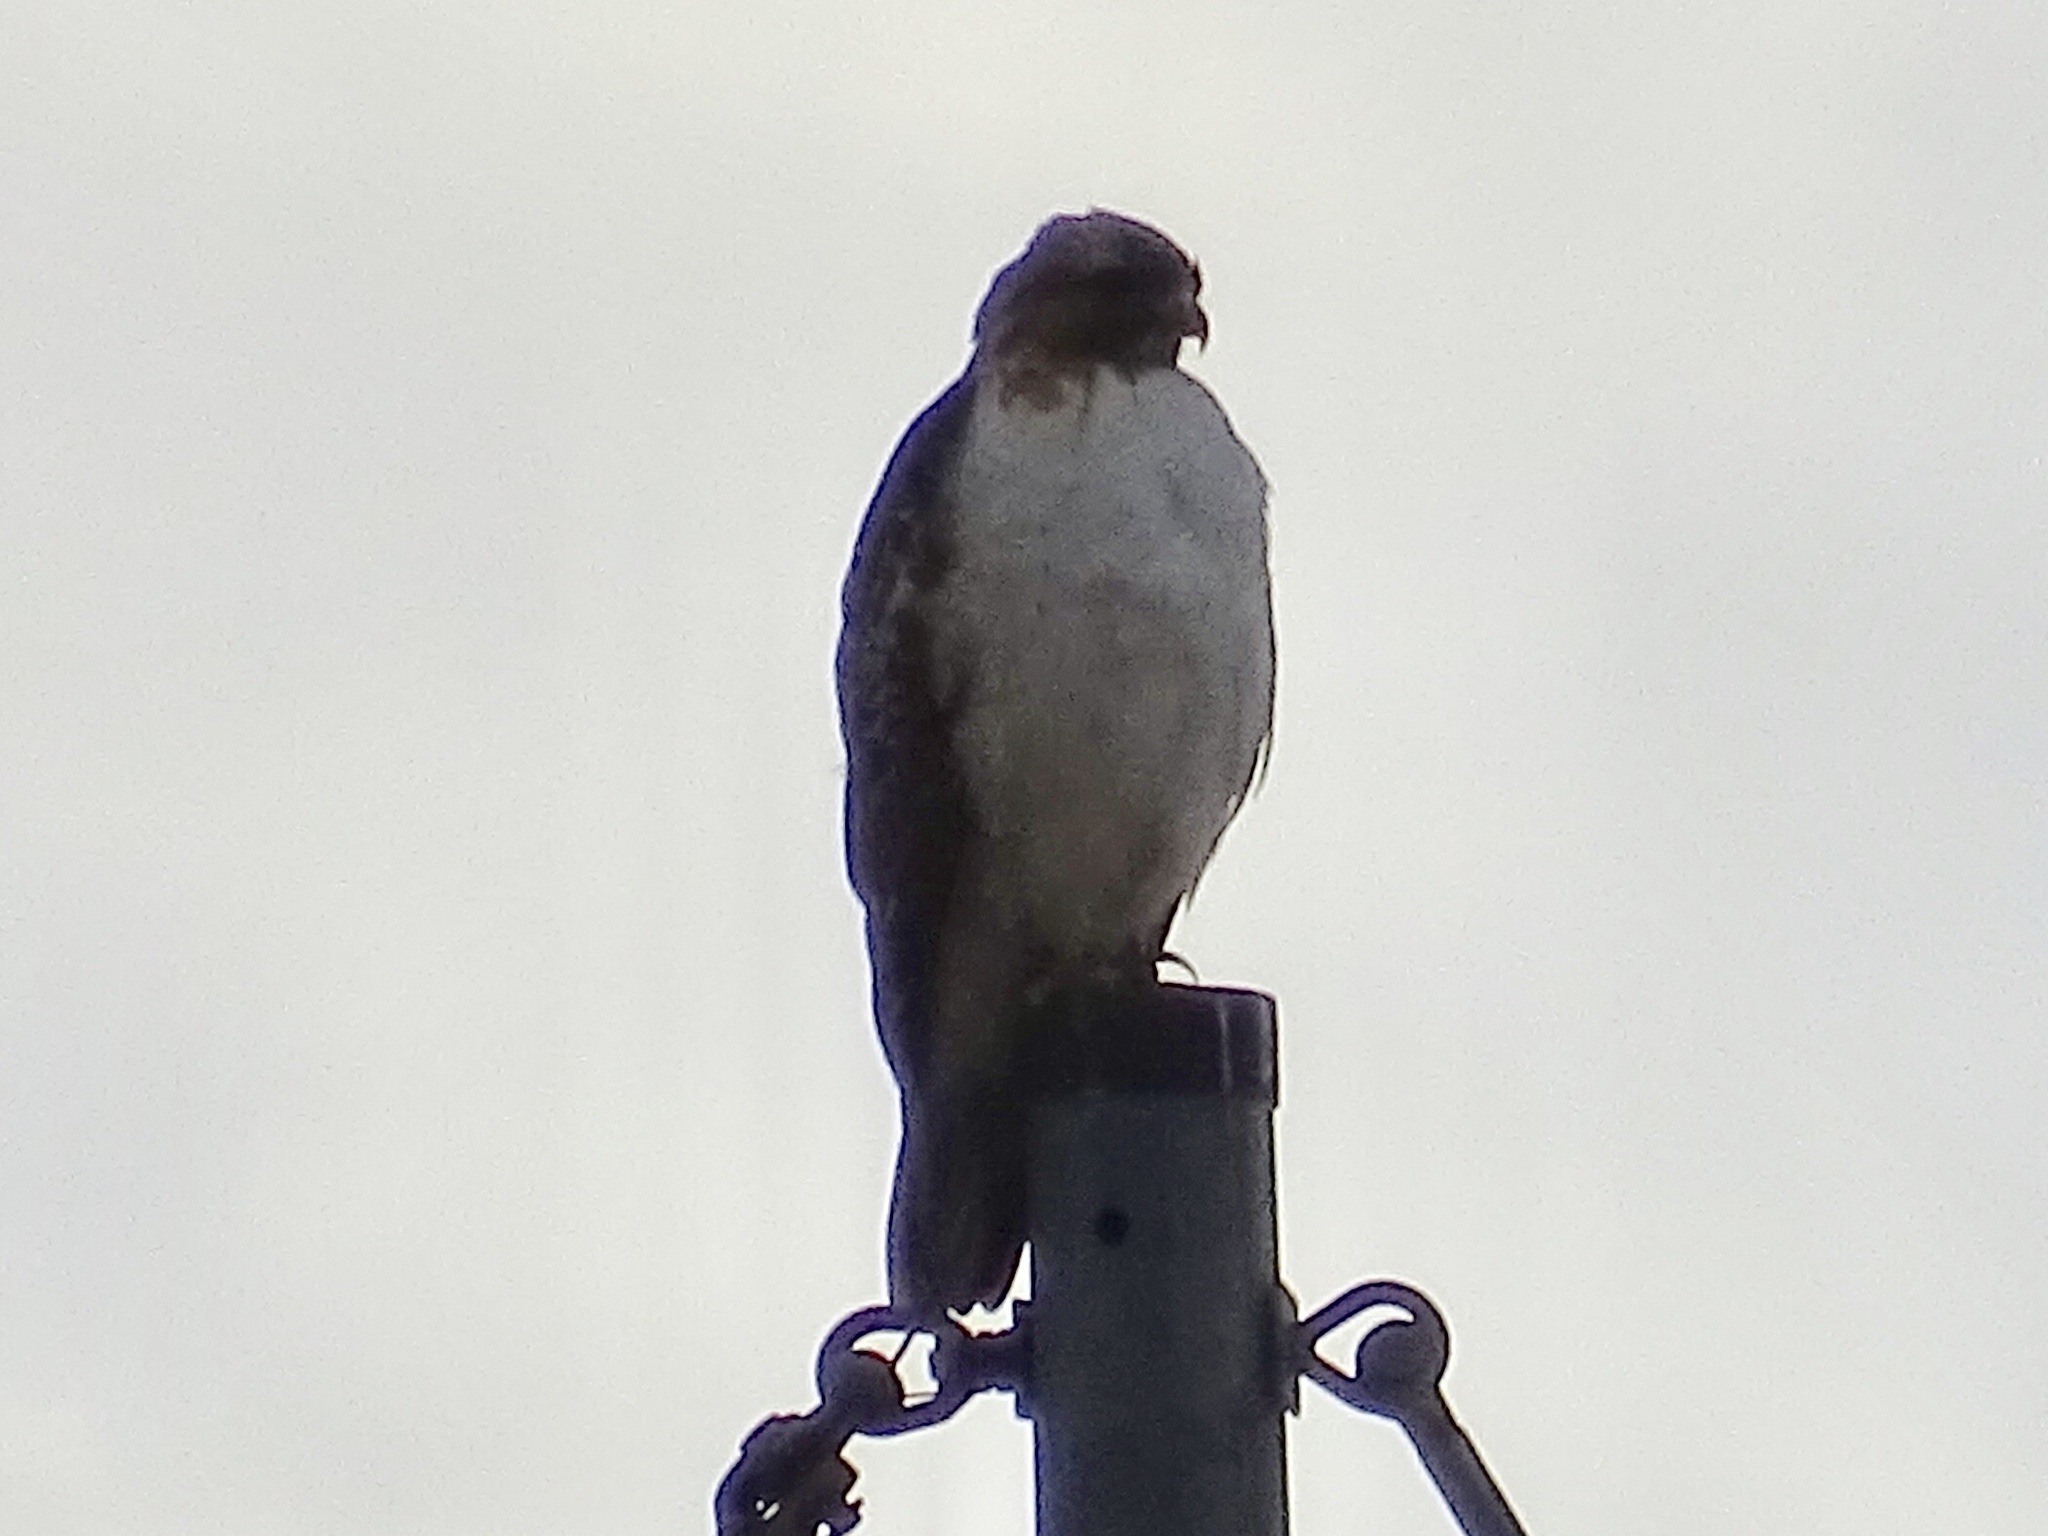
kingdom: Animalia
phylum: Chordata
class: Aves
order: Accipitriformes
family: Accipitridae
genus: Buteo
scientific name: Buteo jamaicensis
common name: Red-tailed hawk
